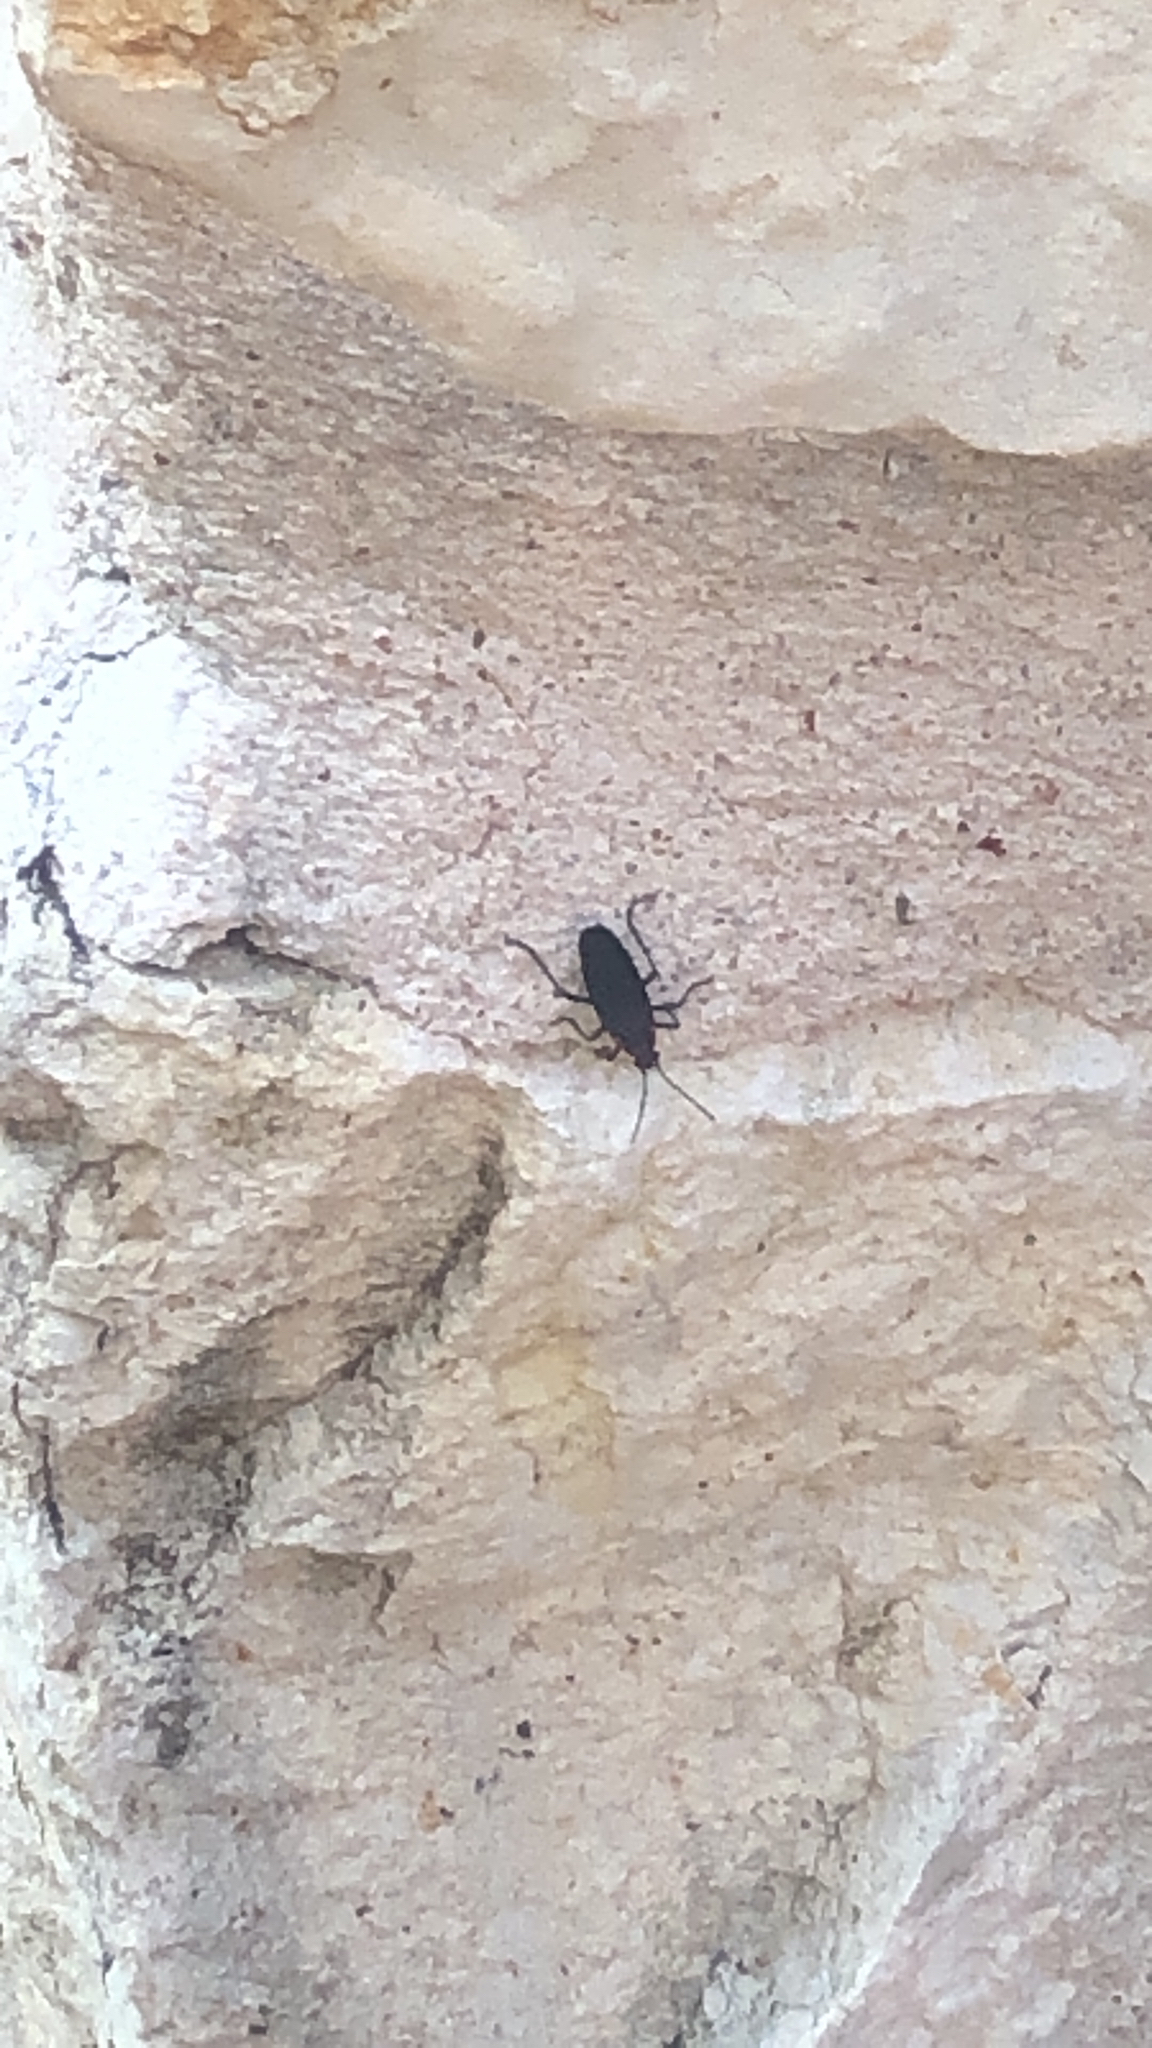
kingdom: Animalia
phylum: Arthropoda
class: Insecta
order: Hemiptera
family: Rhopalidae
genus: Jadera
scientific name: Jadera haematoloma
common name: Red-shouldered bug
